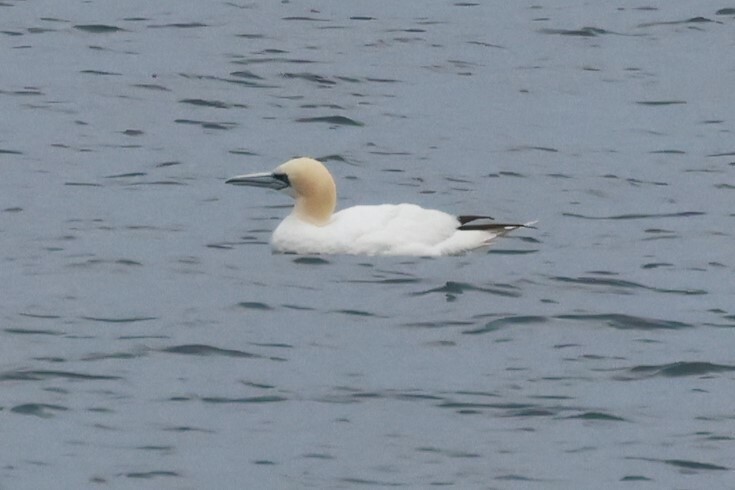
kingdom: Animalia
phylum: Chordata
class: Aves
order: Suliformes
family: Sulidae
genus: Morus
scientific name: Morus bassanus
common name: Northern gannet
